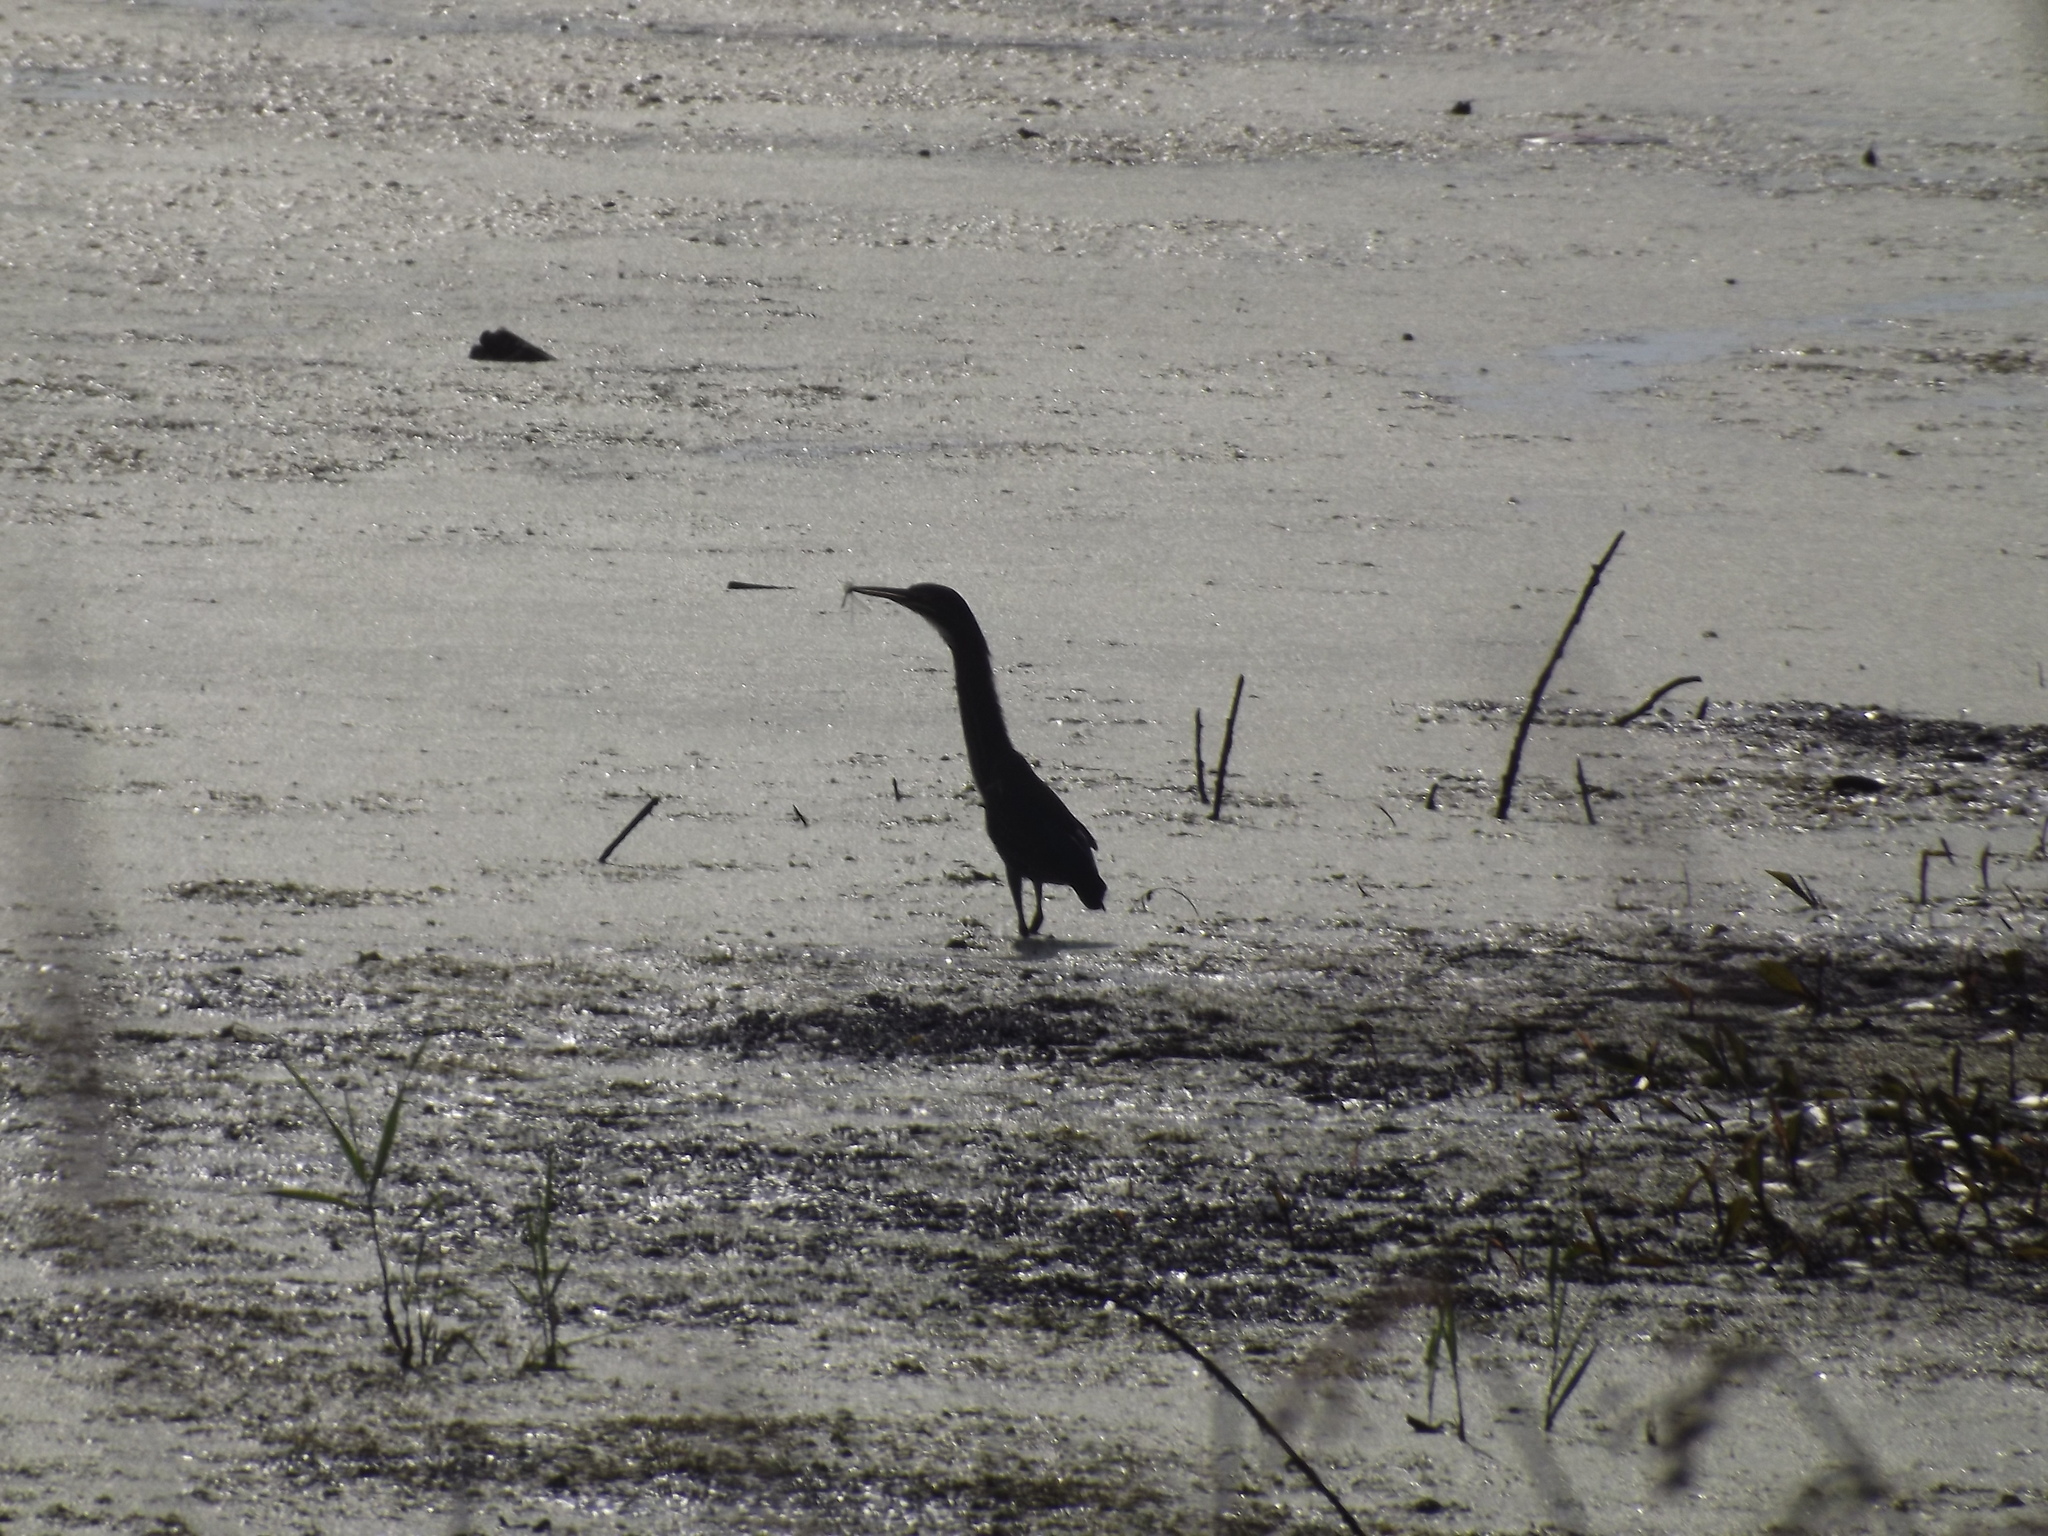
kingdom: Animalia
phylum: Chordata
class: Aves
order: Pelecaniformes
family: Ardeidae
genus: Butorides
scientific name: Butorides virescens
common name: Green heron
